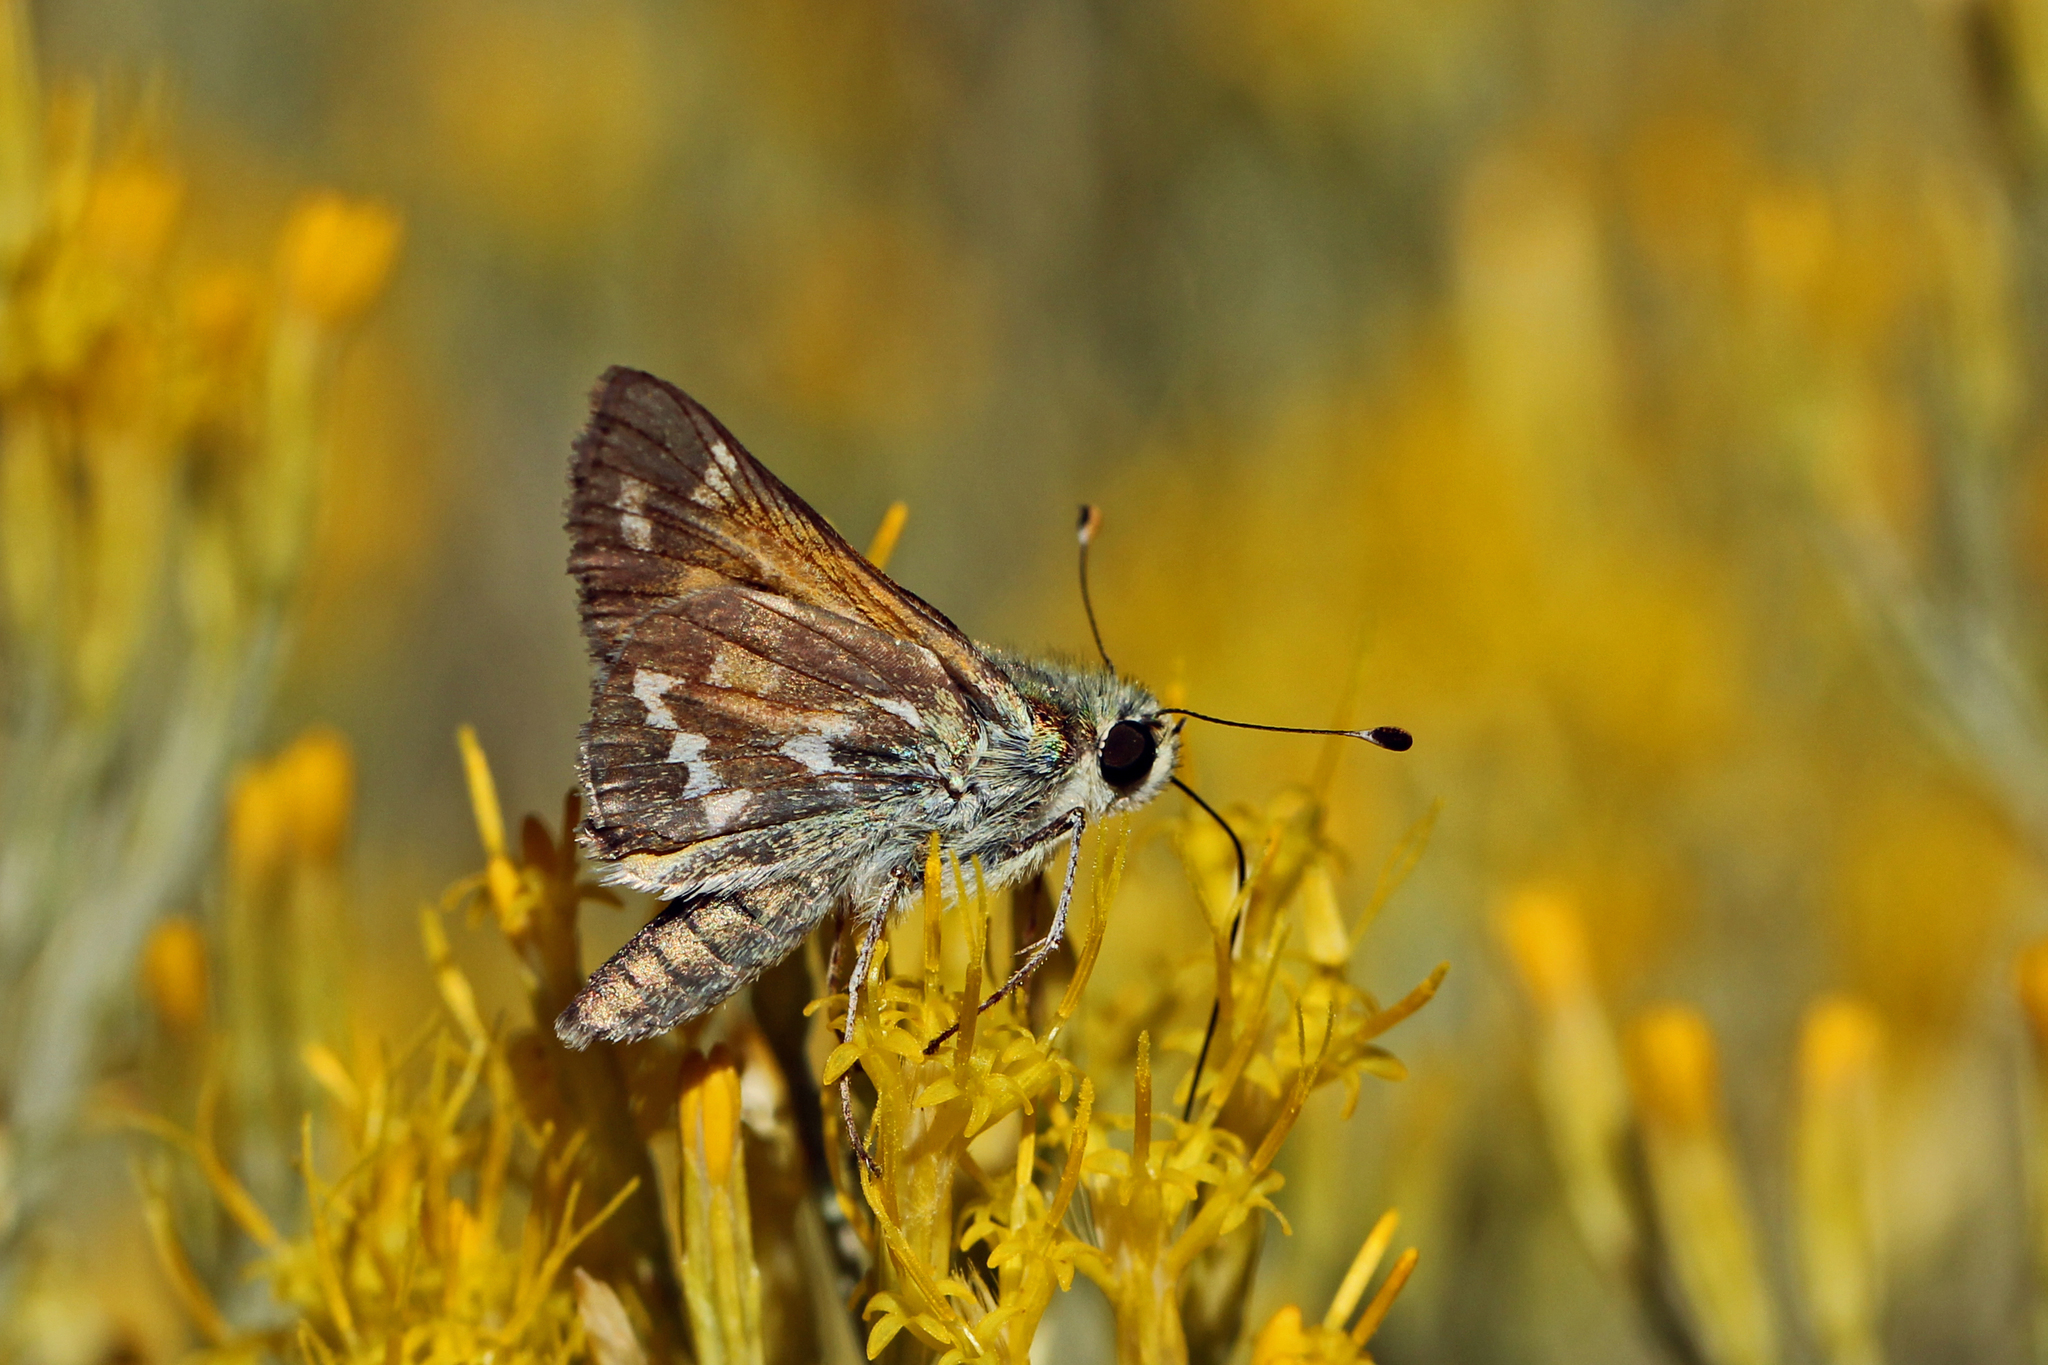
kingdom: Animalia
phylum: Arthropoda
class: Insecta
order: Lepidoptera
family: Hesperiidae
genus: Hesperia
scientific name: Hesperia comma
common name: Common branded skipper
